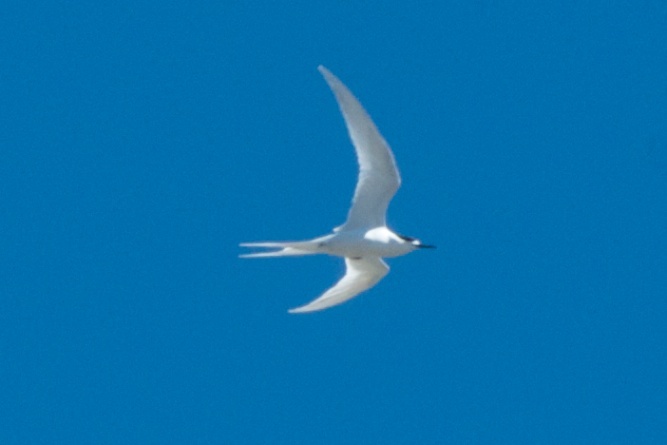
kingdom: Animalia
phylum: Chordata
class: Aves
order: Charadriiformes
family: Laridae
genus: Sterna
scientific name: Sterna striata
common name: White-fronted tern
